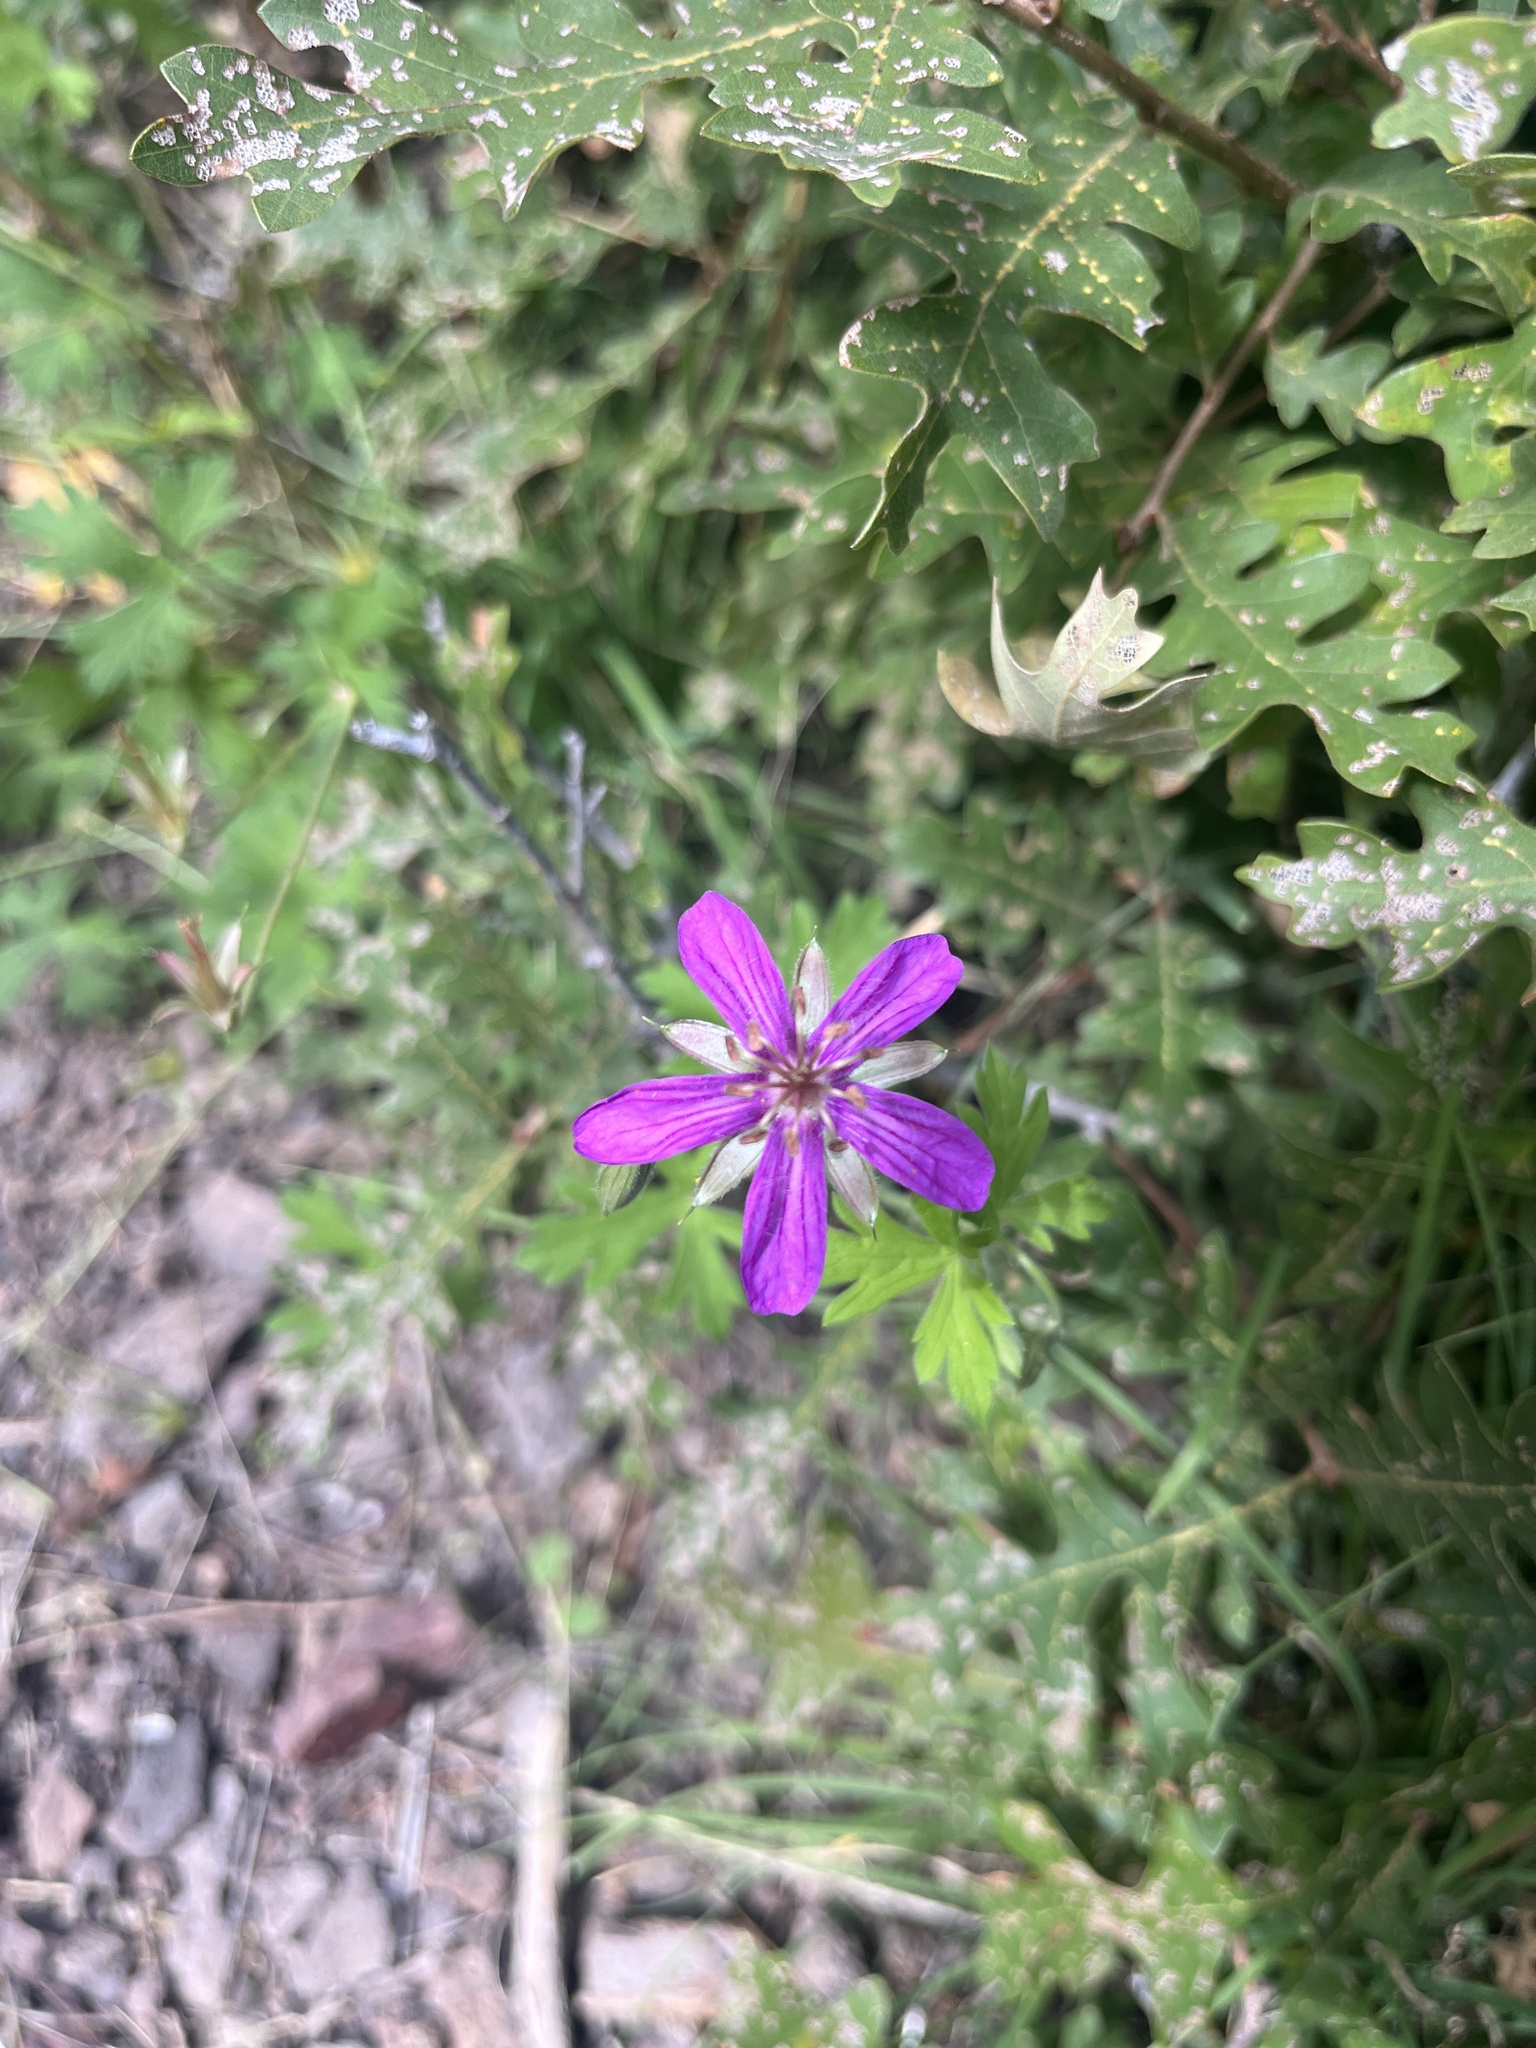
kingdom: Plantae
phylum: Tracheophyta
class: Magnoliopsida
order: Geraniales
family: Geraniaceae
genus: Geranium
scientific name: Geranium caespitosum
